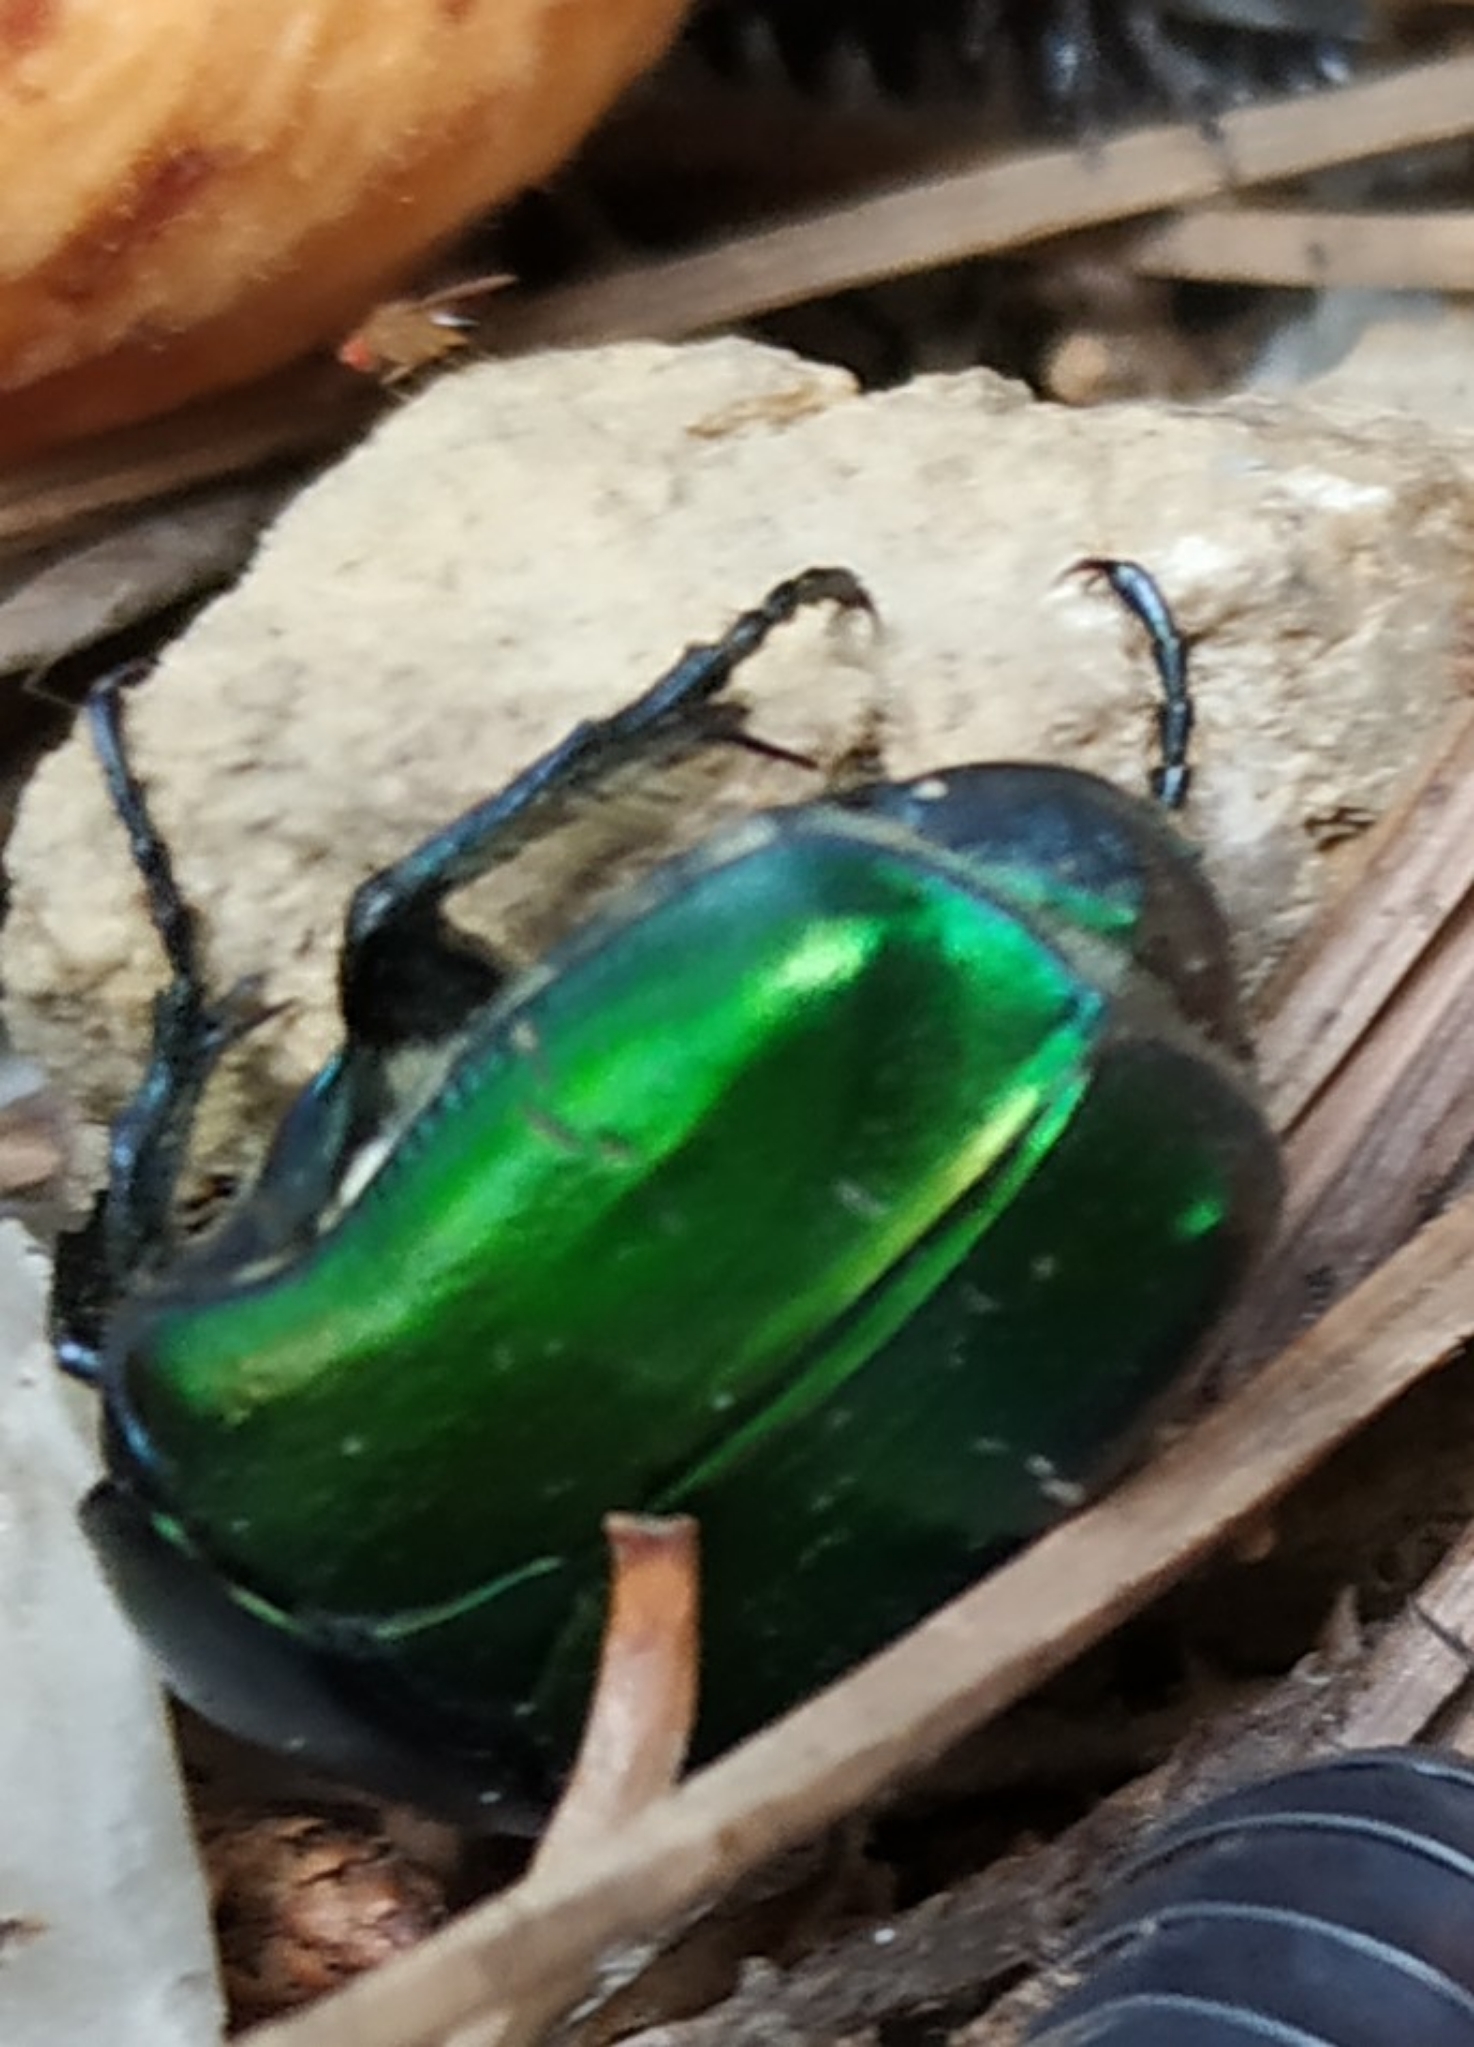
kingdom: Animalia
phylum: Arthropoda
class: Insecta
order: Coleoptera
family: Scarabaeidae
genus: Cetonia
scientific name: Cetonia aurata
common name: Rose chafer
